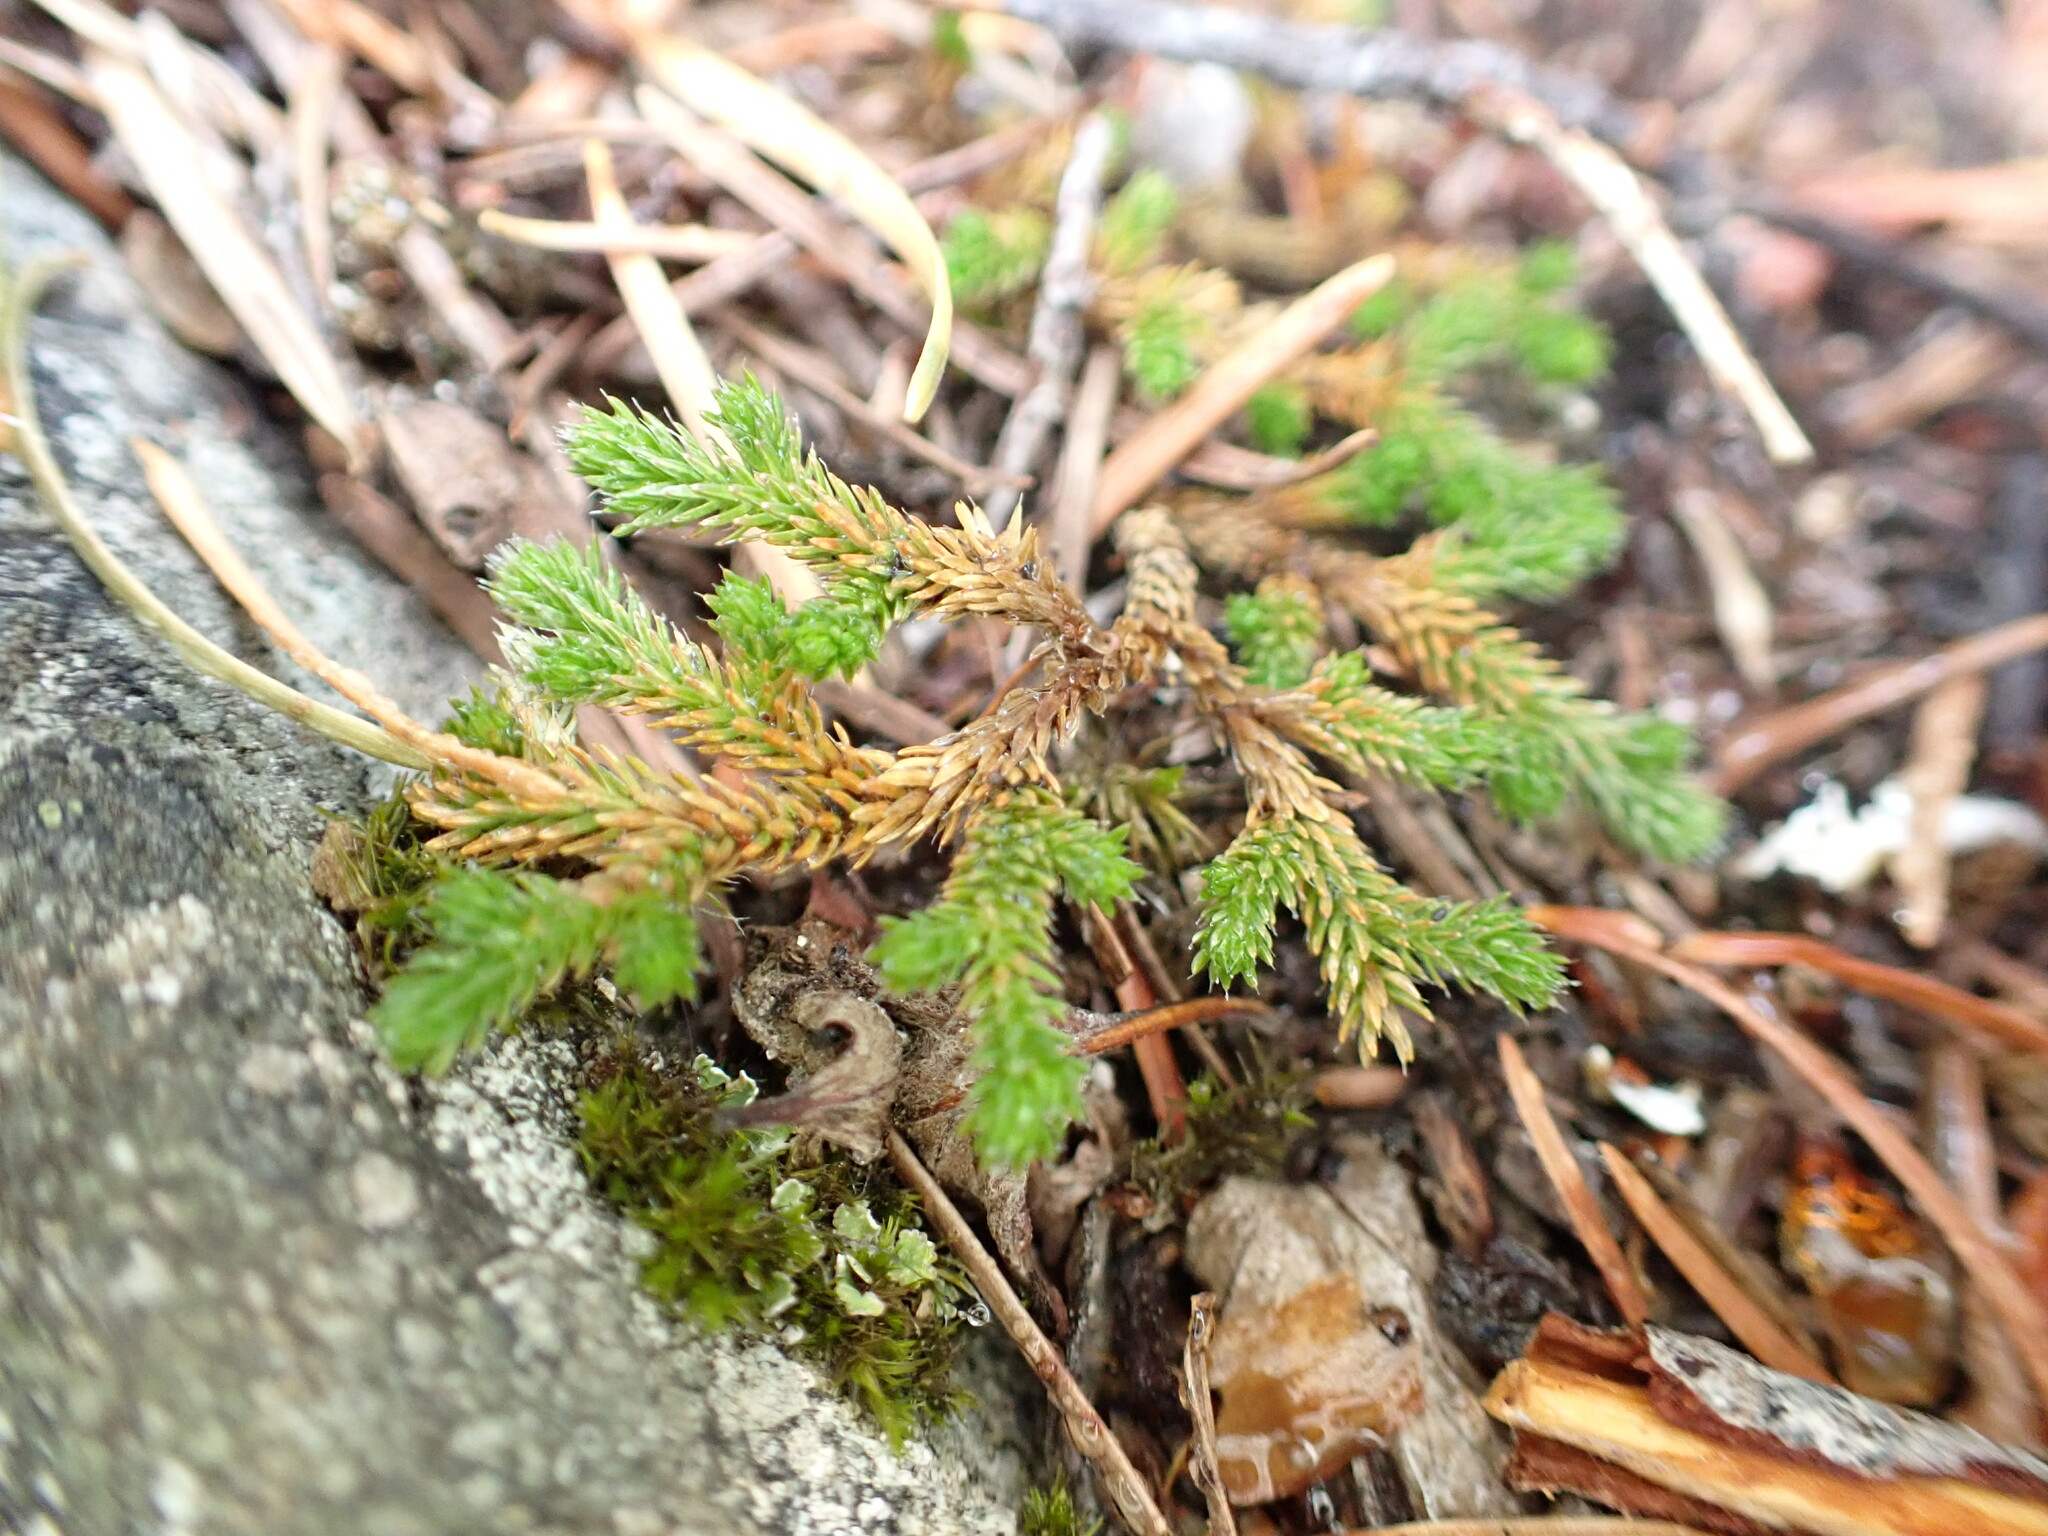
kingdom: Plantae
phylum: Tracheophyta
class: Lycopodiopsida
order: Selaginellales
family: Selaginellaceae
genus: Selaginella
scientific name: Selaginella wallacei
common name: Wallace's selaginella
